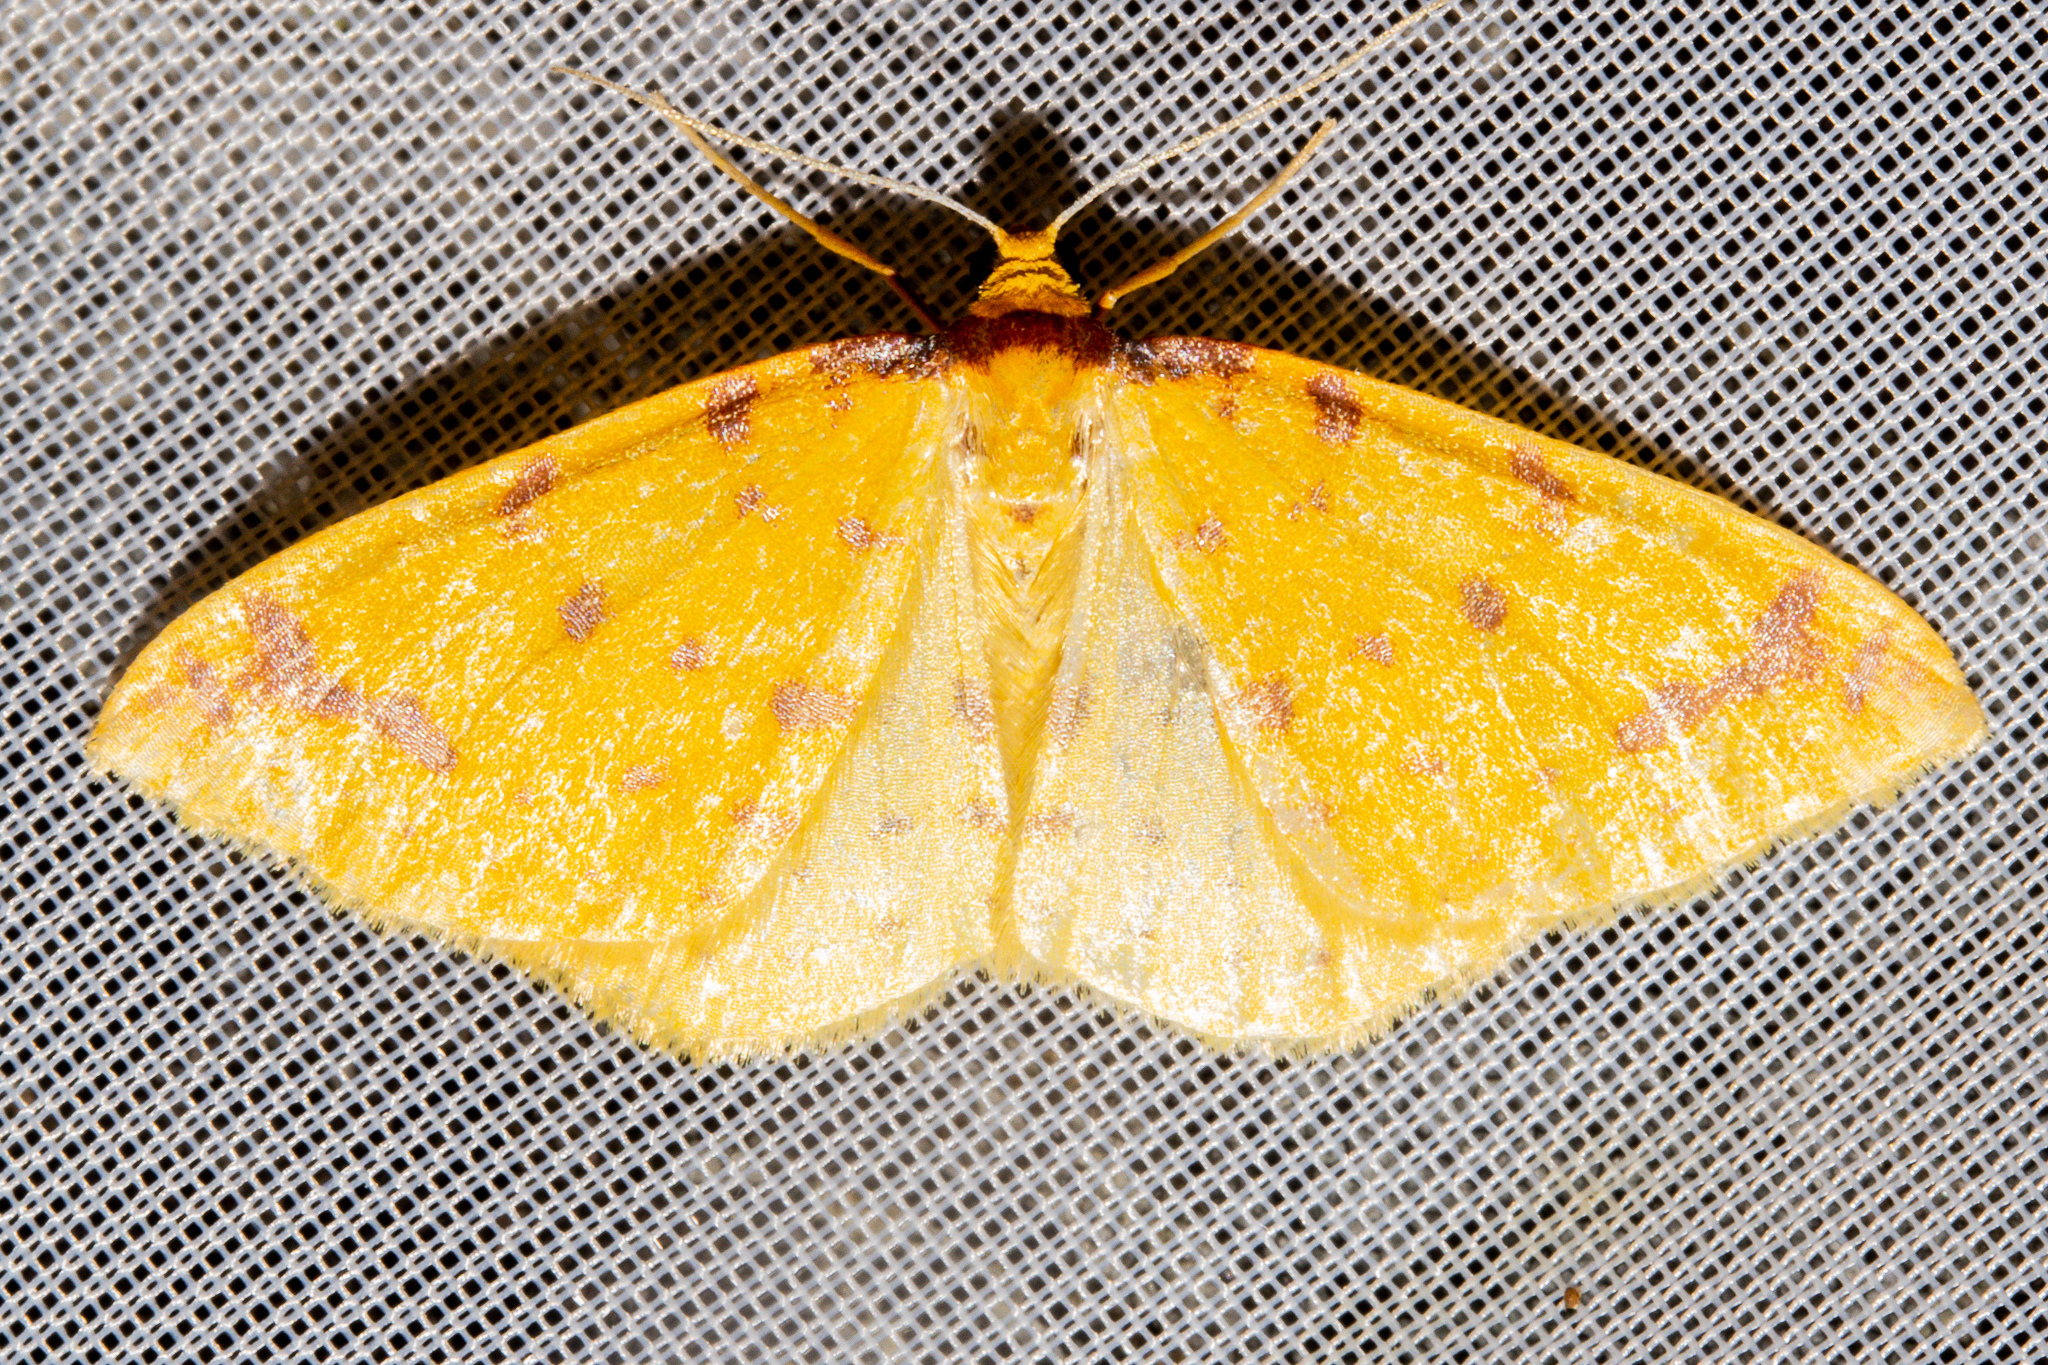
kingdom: Animalia
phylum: Arthropoda
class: Insecta
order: Lepidoptera
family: Geometridae
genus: Orthoclydon
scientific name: Orthoclydon chlorias
